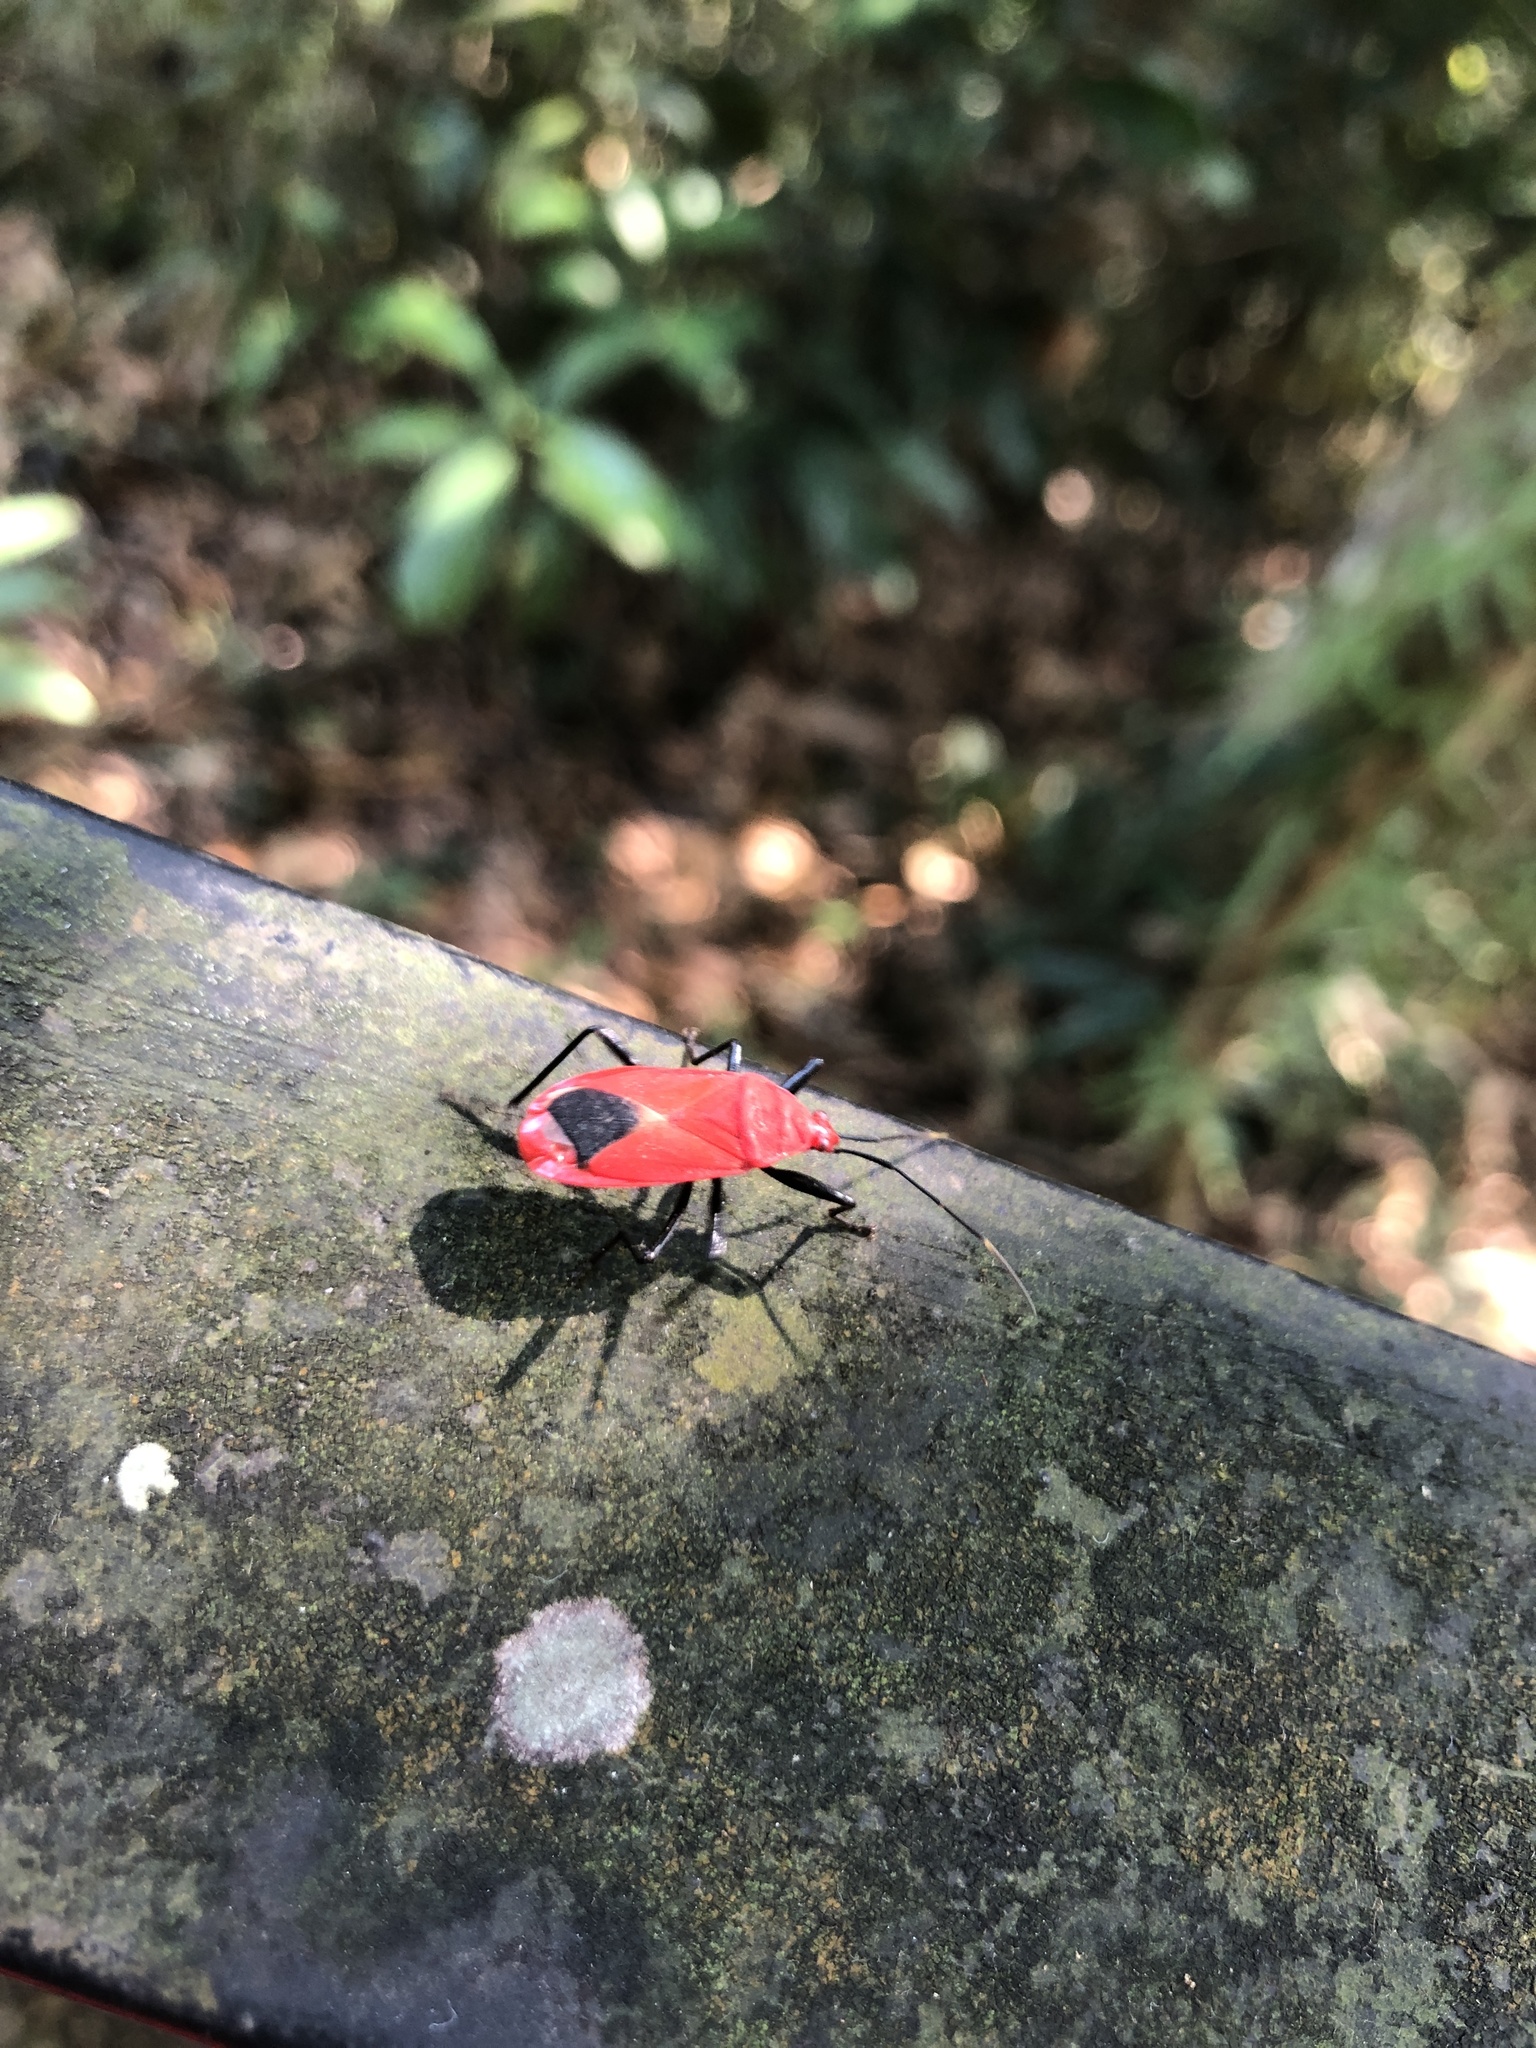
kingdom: Animalia
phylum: Arthropoda
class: Insecta
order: Hemiptera
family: Pyrrhocoridae
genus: Antilochus
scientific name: Antilochus
